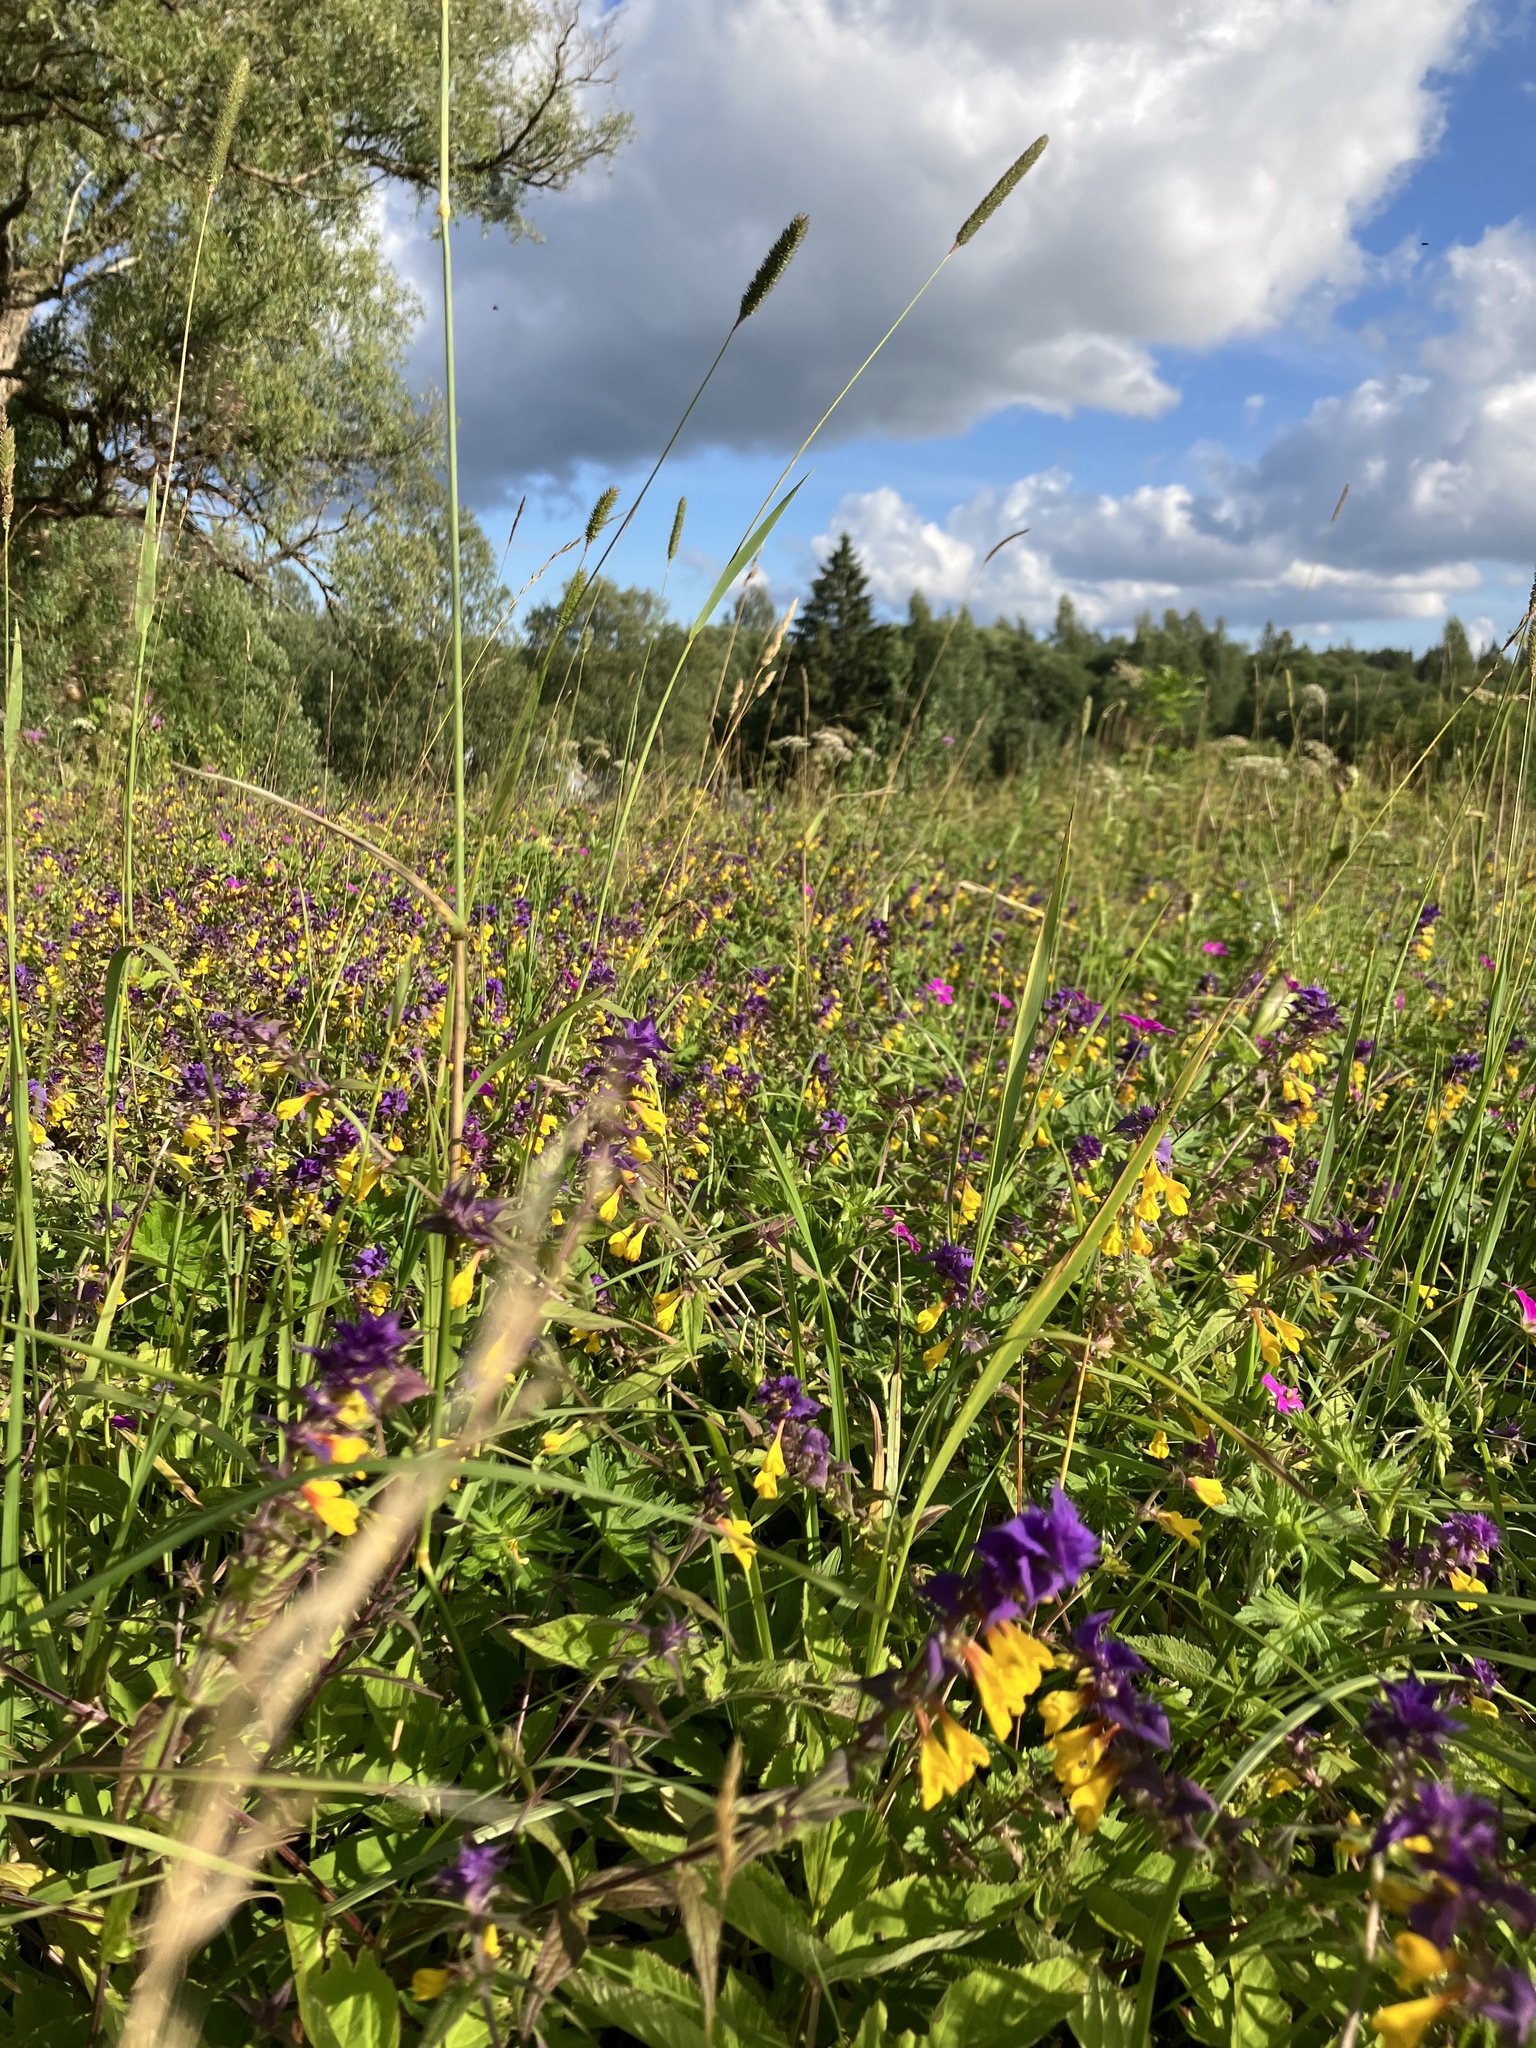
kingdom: Plantae
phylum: Tracheophyta
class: Magnoliopsida
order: Lamiales
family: Orobanchaceae
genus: Melampyrum
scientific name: Melampyrum nemorosum
